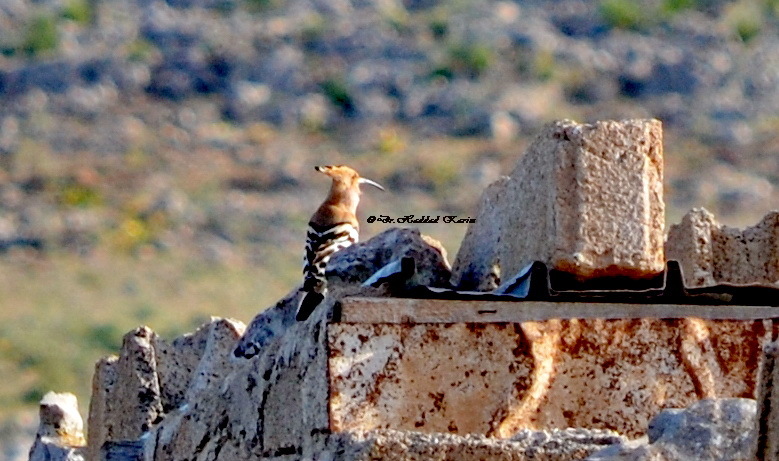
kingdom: Animalia
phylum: Chordata
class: Aves
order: Bucerotiformes
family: Upupidae
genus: Upupa
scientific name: Upupa epops
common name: Eurasian hoopoe
